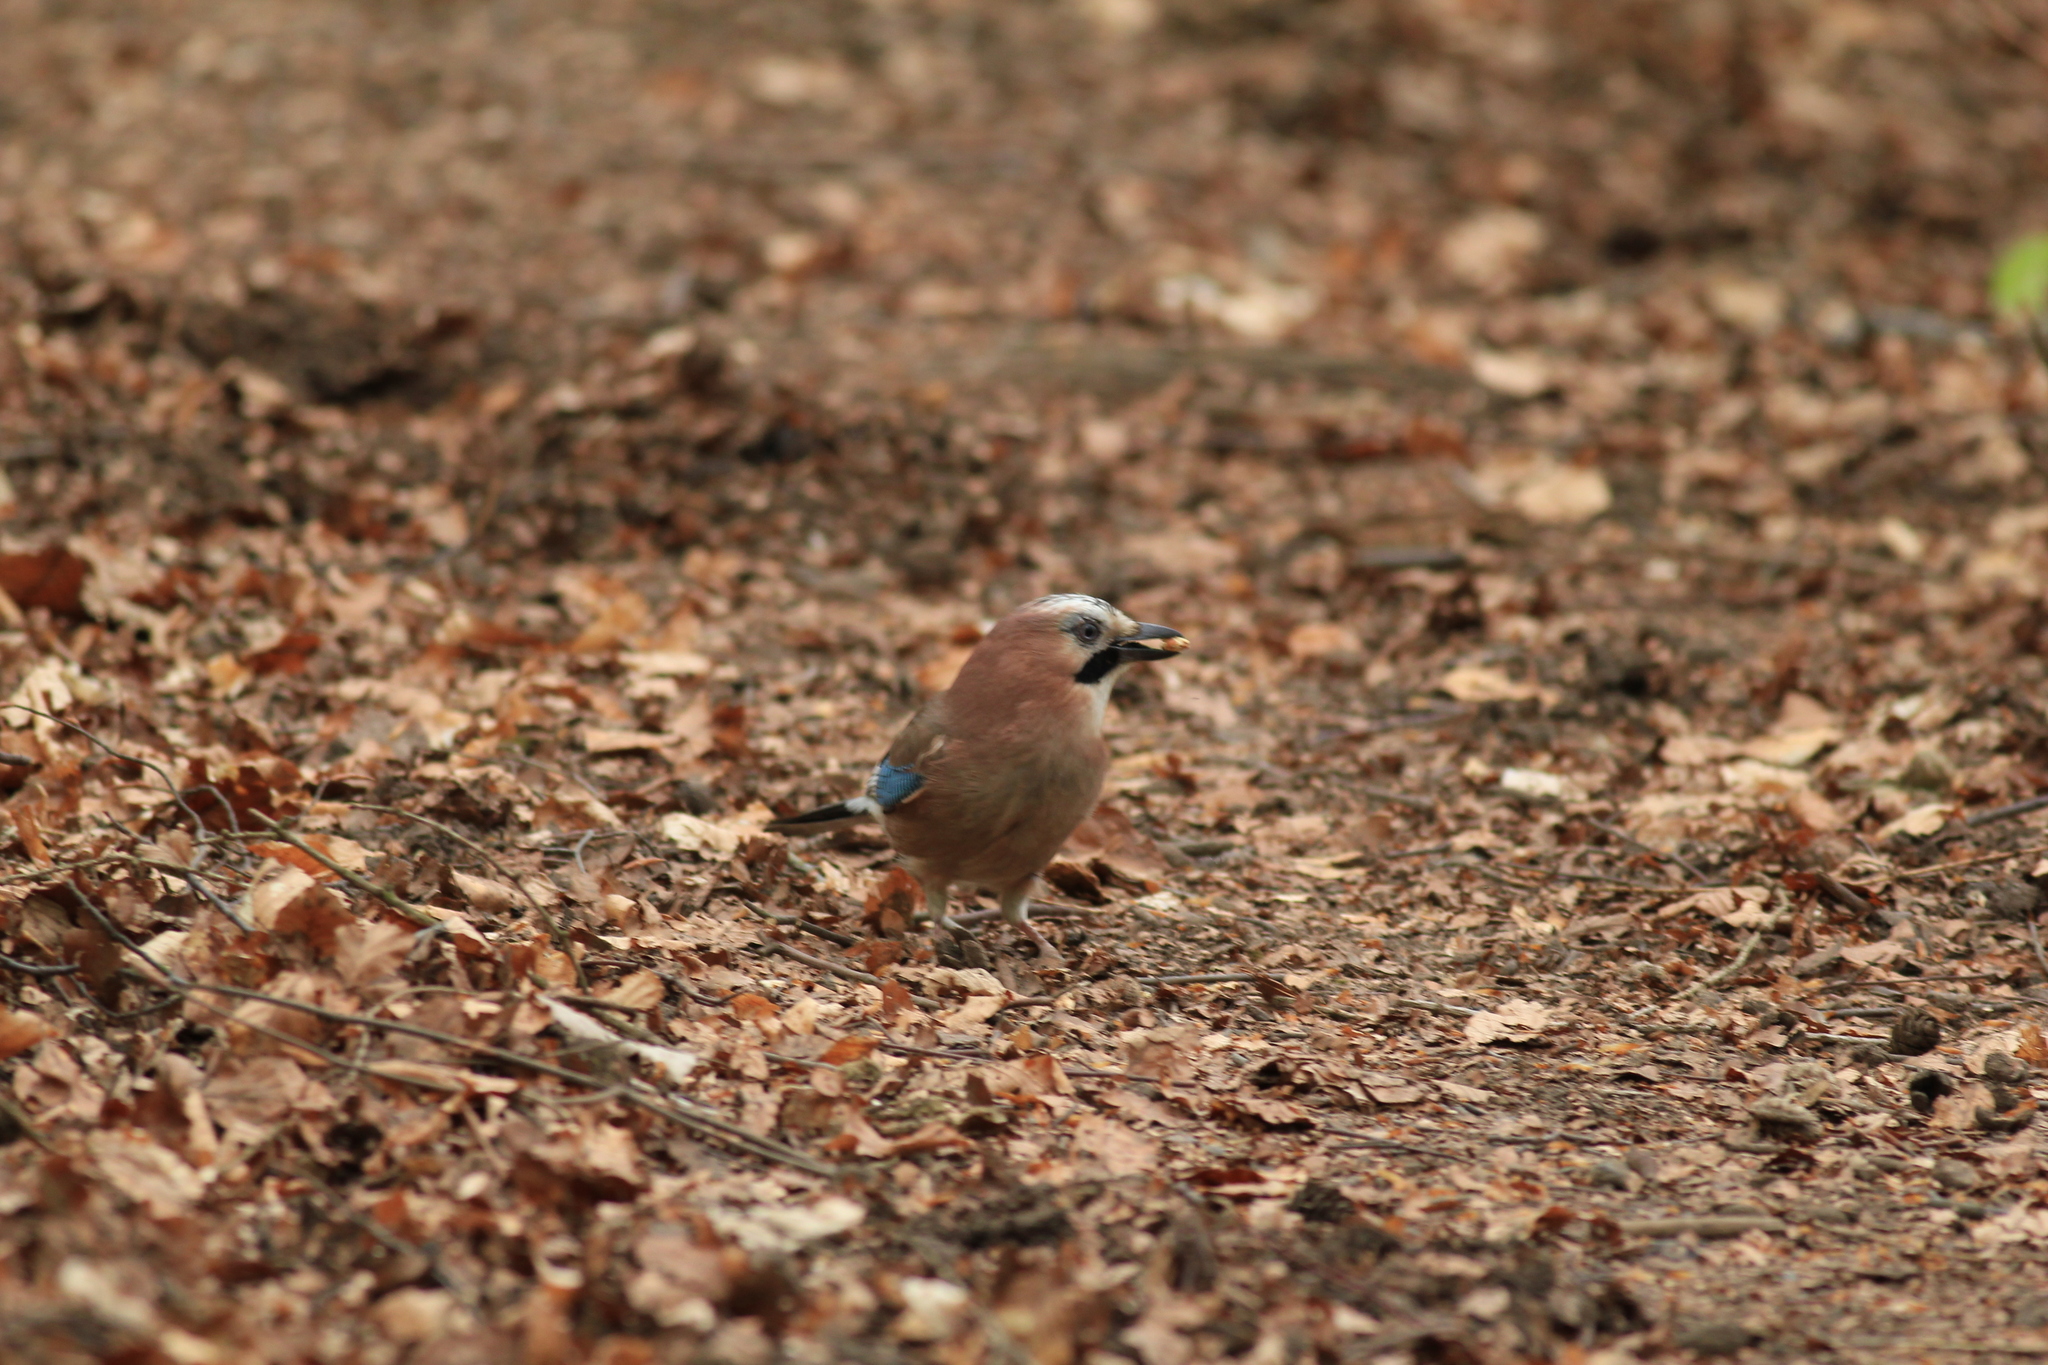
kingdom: Animalia
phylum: Chordata
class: Aves
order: Passeriformes
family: Corvidae
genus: Garrulus
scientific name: Garrulus glandarius
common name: Eurasian jay
